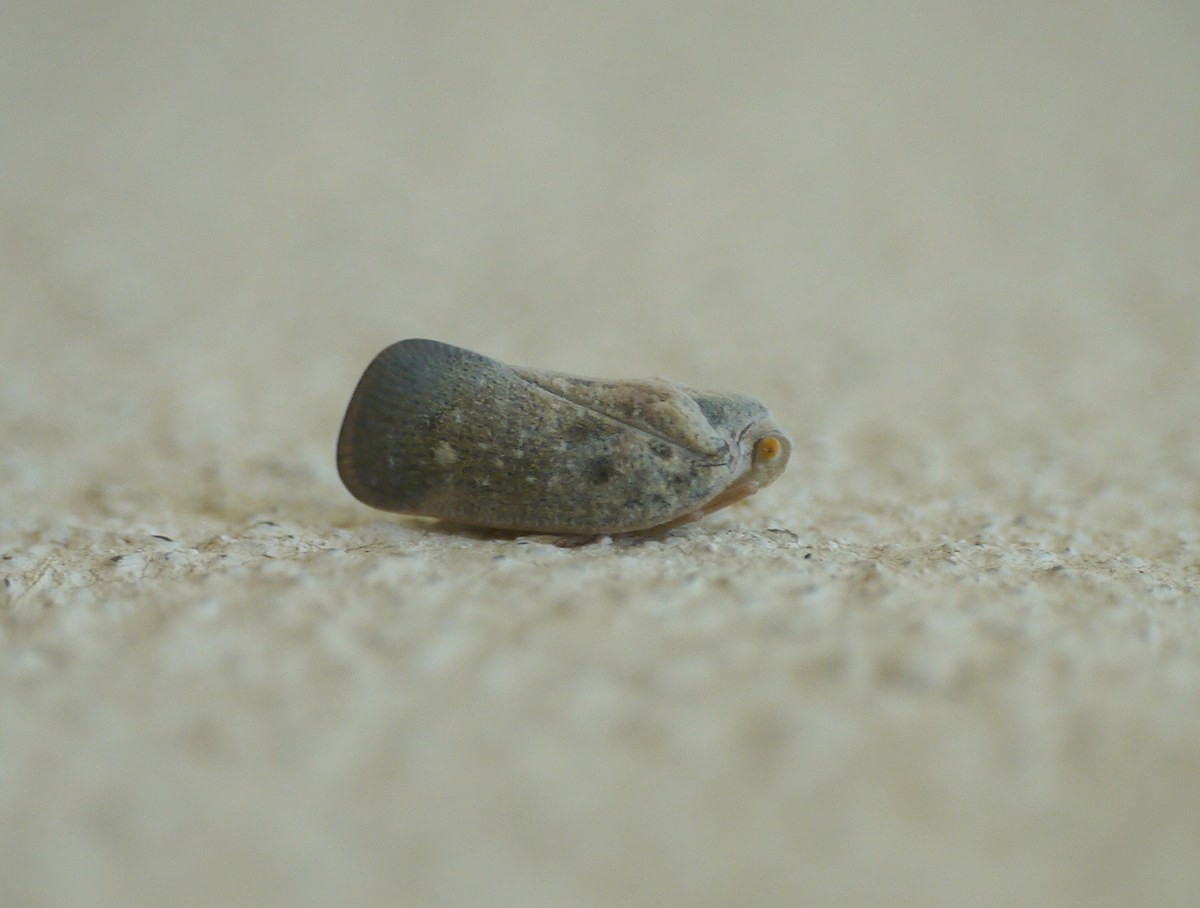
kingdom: Animalia
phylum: Arthropoda
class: Insecta
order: Hemiptera
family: Flatidae
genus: Metcalfa
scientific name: Metcalfa pruinosa
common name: Citrus flatid planthopper
